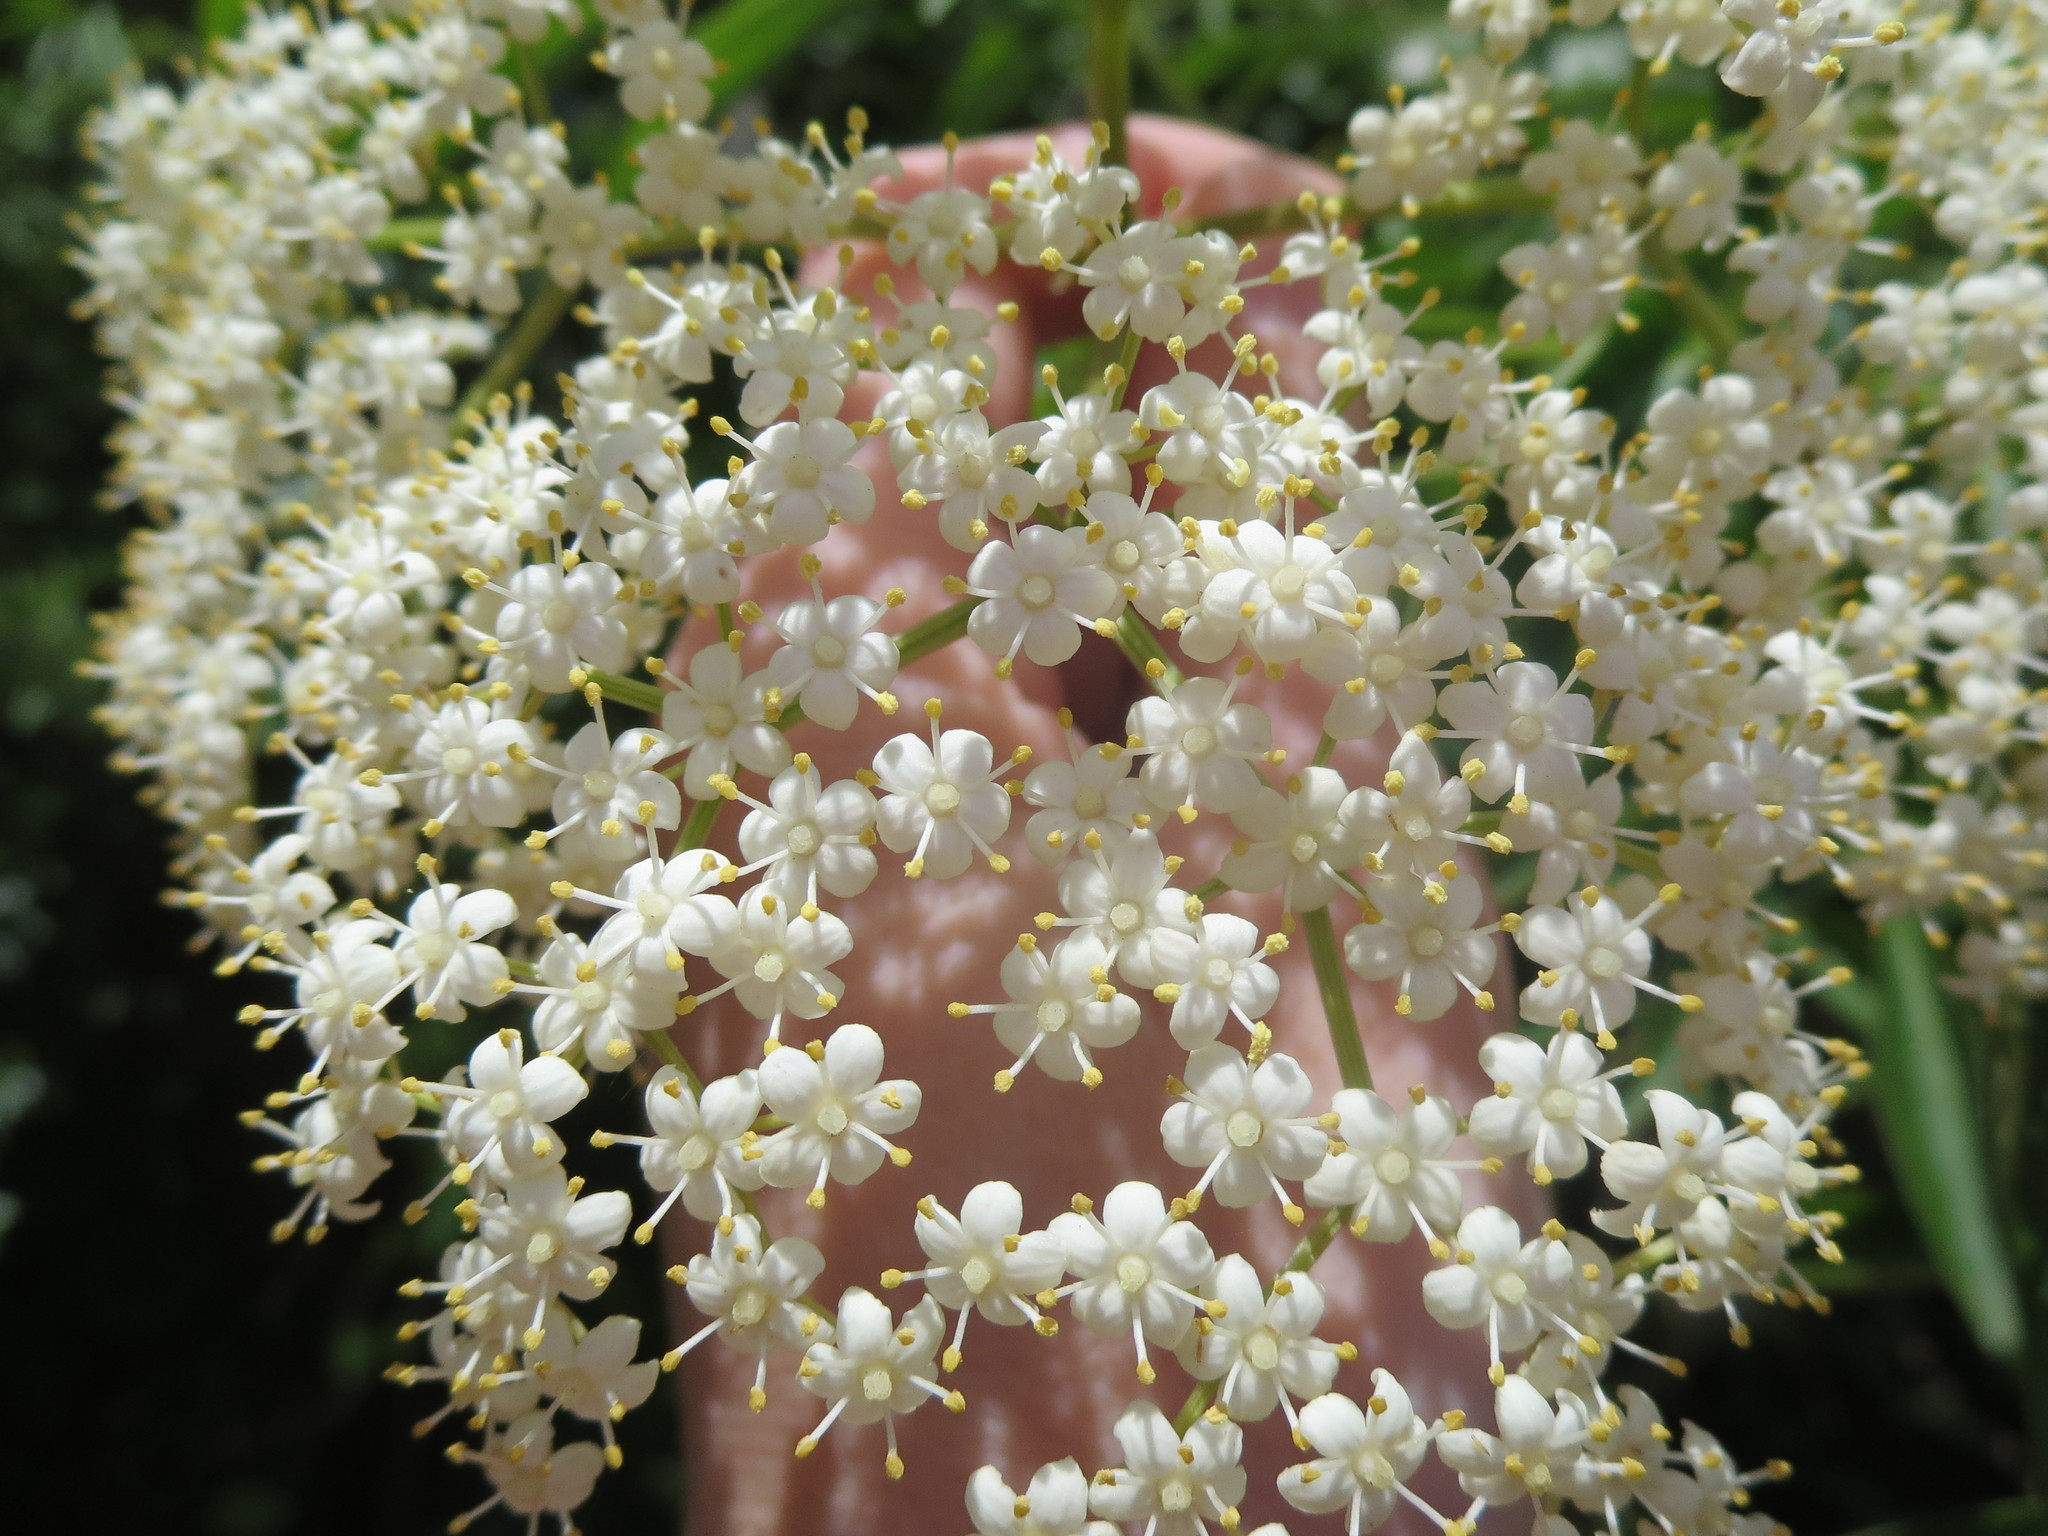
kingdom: Plantae
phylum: Tracheophyta
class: Magnoliopsida
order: Dipsacales
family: Viburnaceae
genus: Sambucus
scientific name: Sambucus canadensis
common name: American elder
